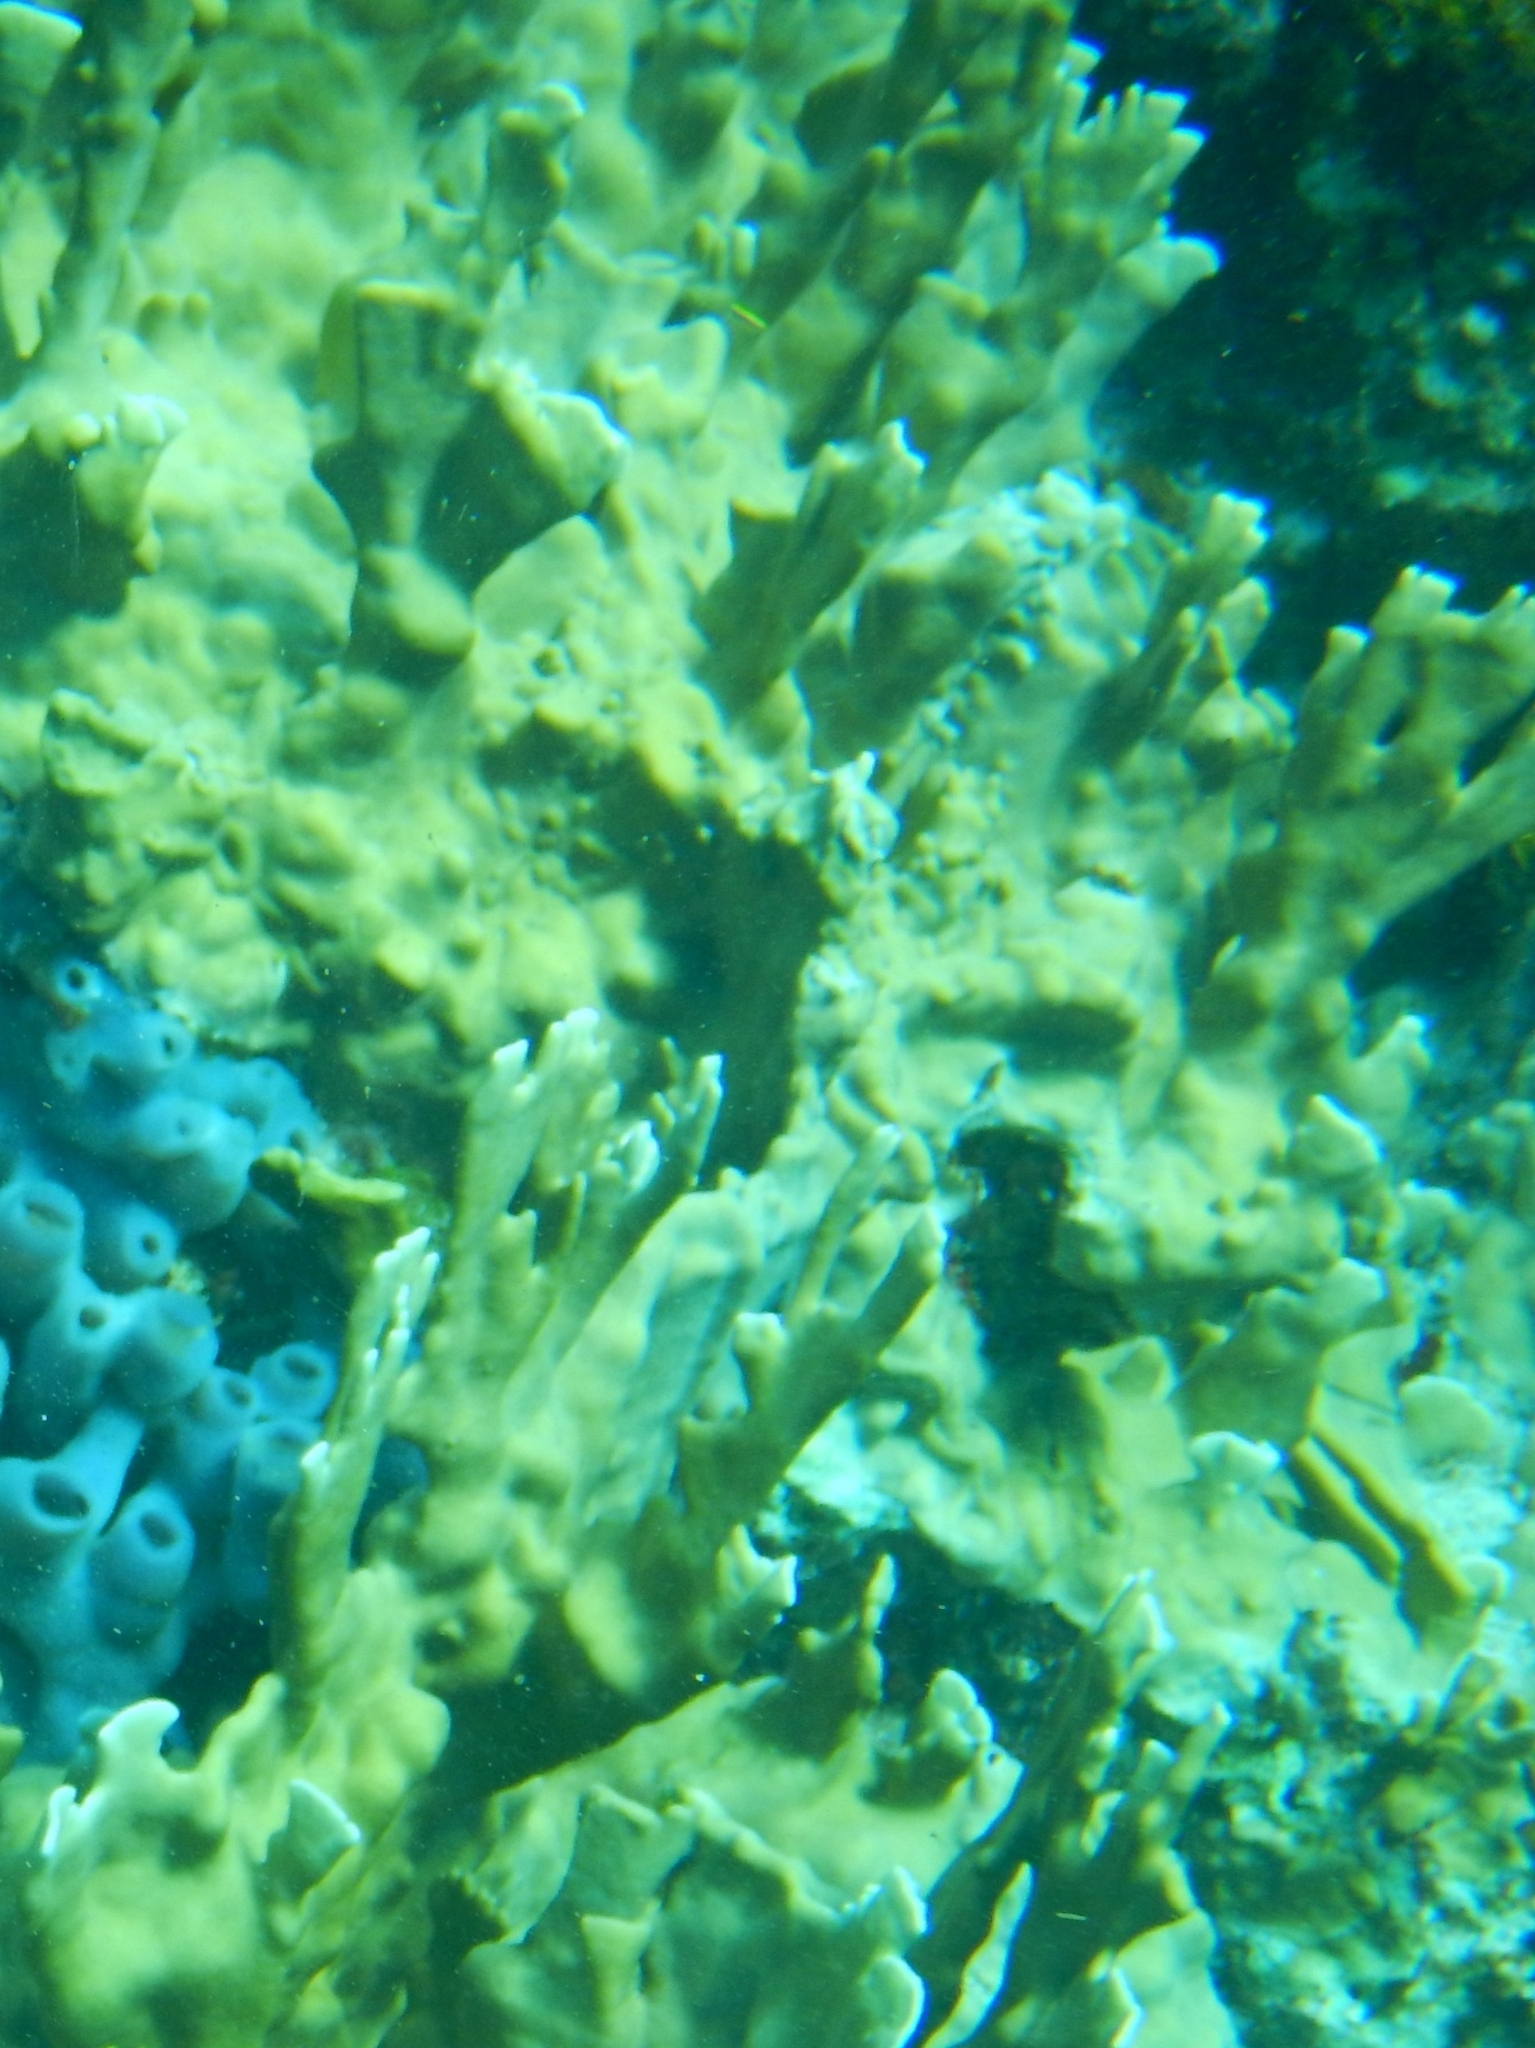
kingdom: Animalia
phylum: Cnidaria
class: Hydrozoa
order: Anthoathecata
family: Milleporidae
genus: Millepora
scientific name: Millepora alcicornis
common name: Branching fire coral
